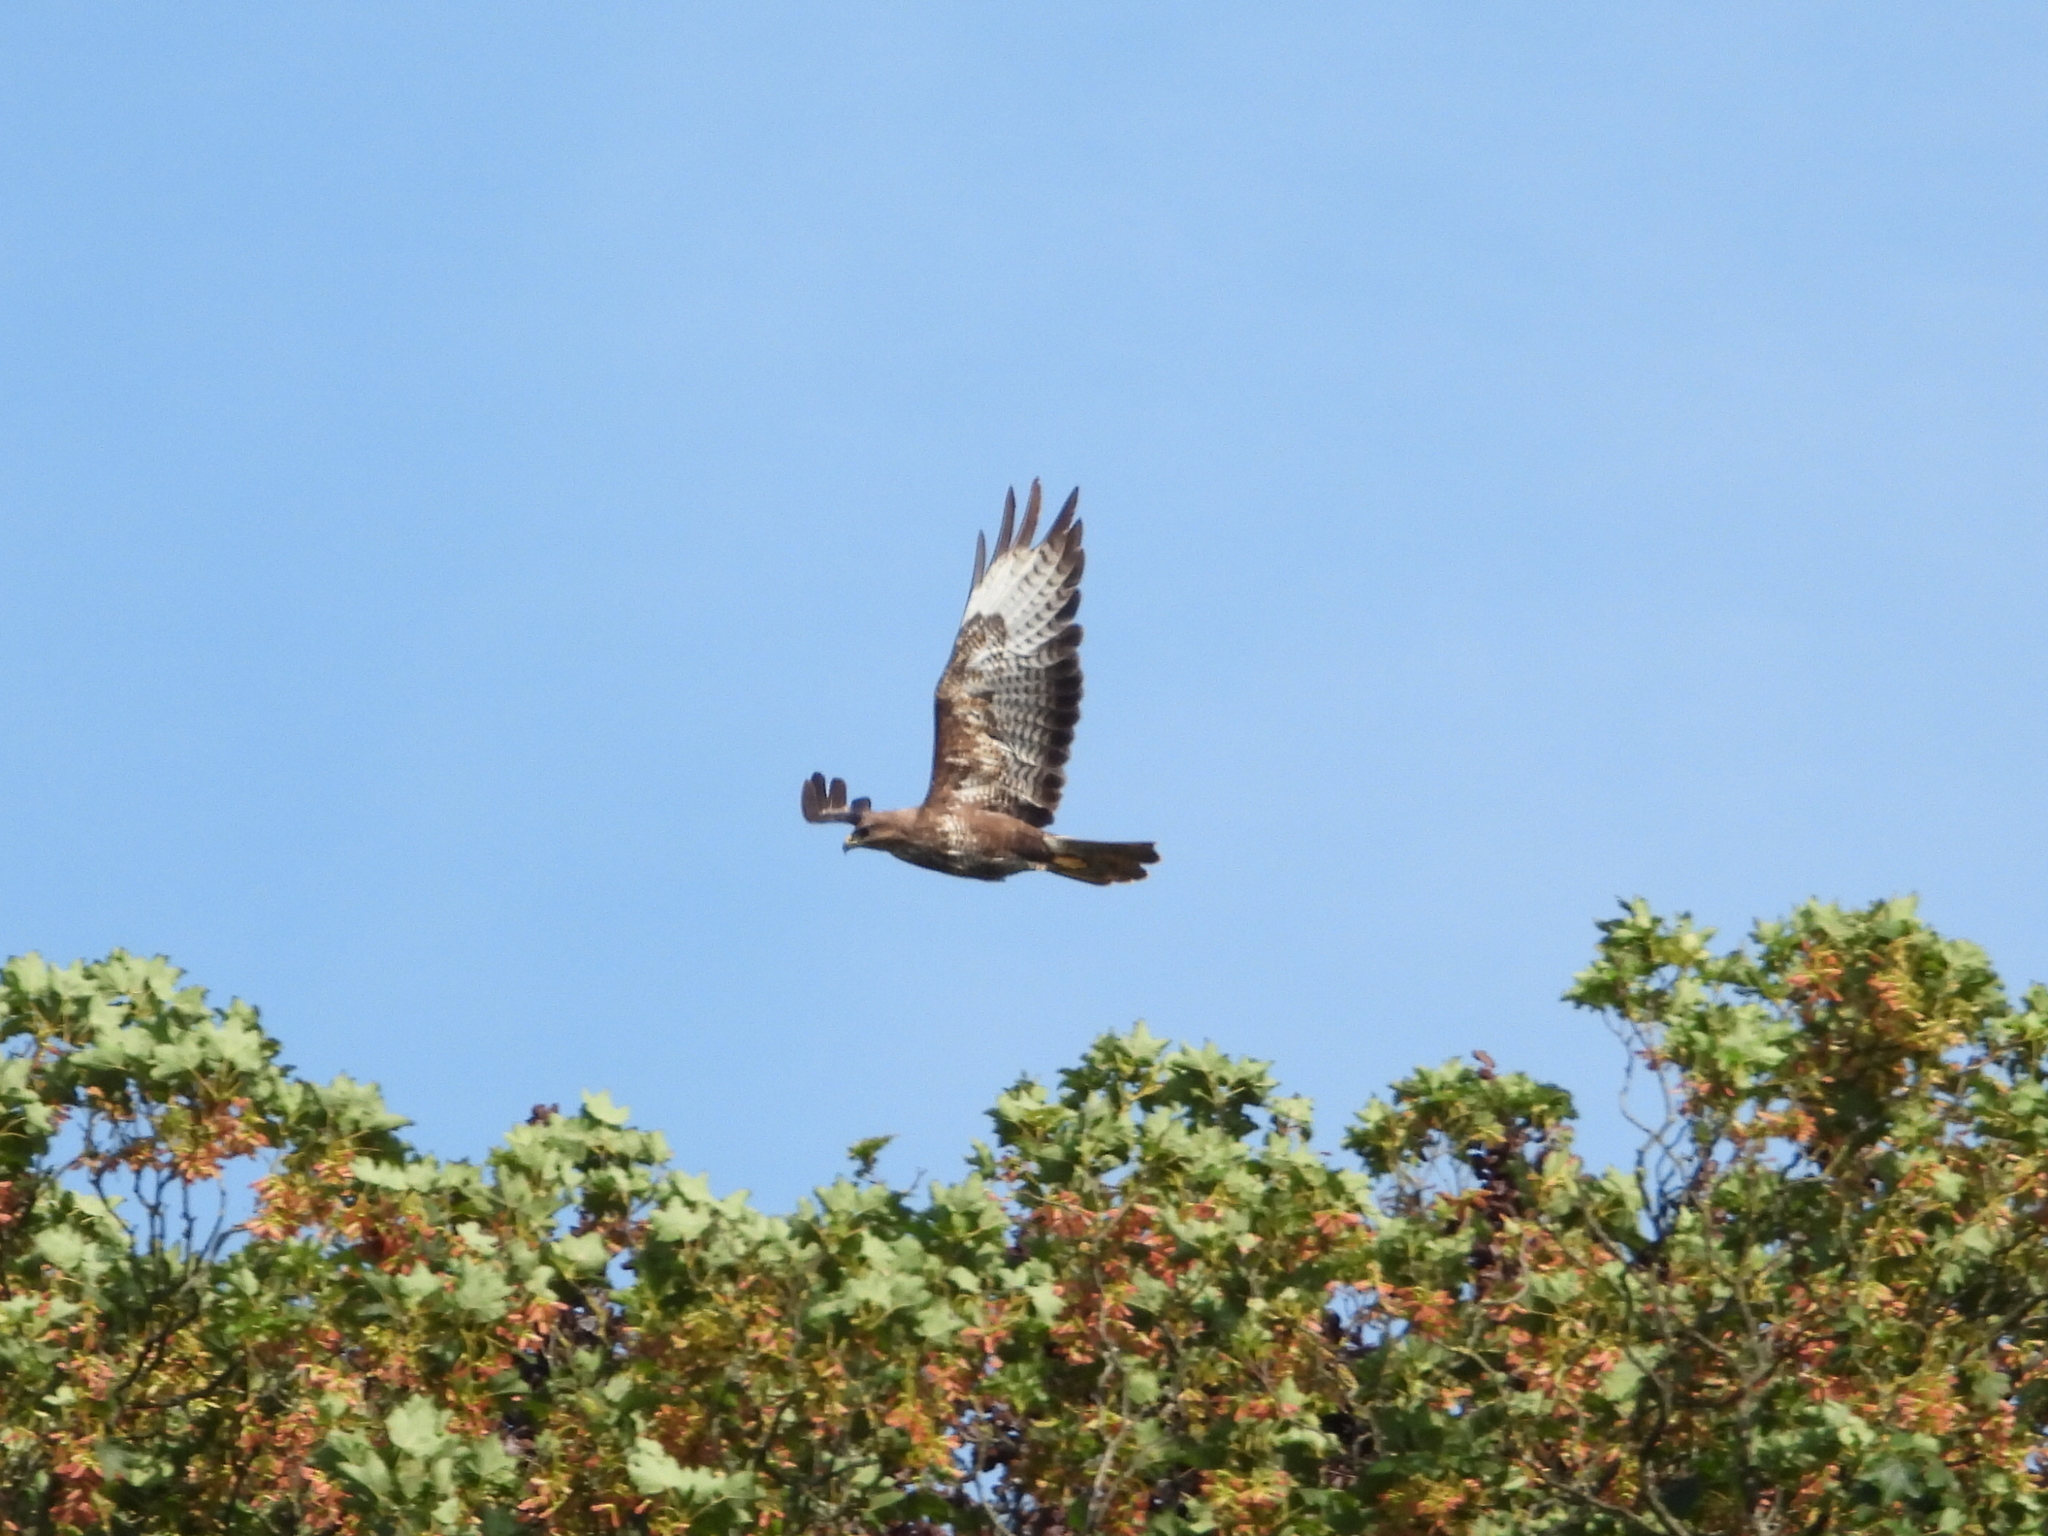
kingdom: Animalia
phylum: Chordata
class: Aves
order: Accipitriformes
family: Accipitridae
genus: Buteo
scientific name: Buteo buteo
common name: Common buzzard
